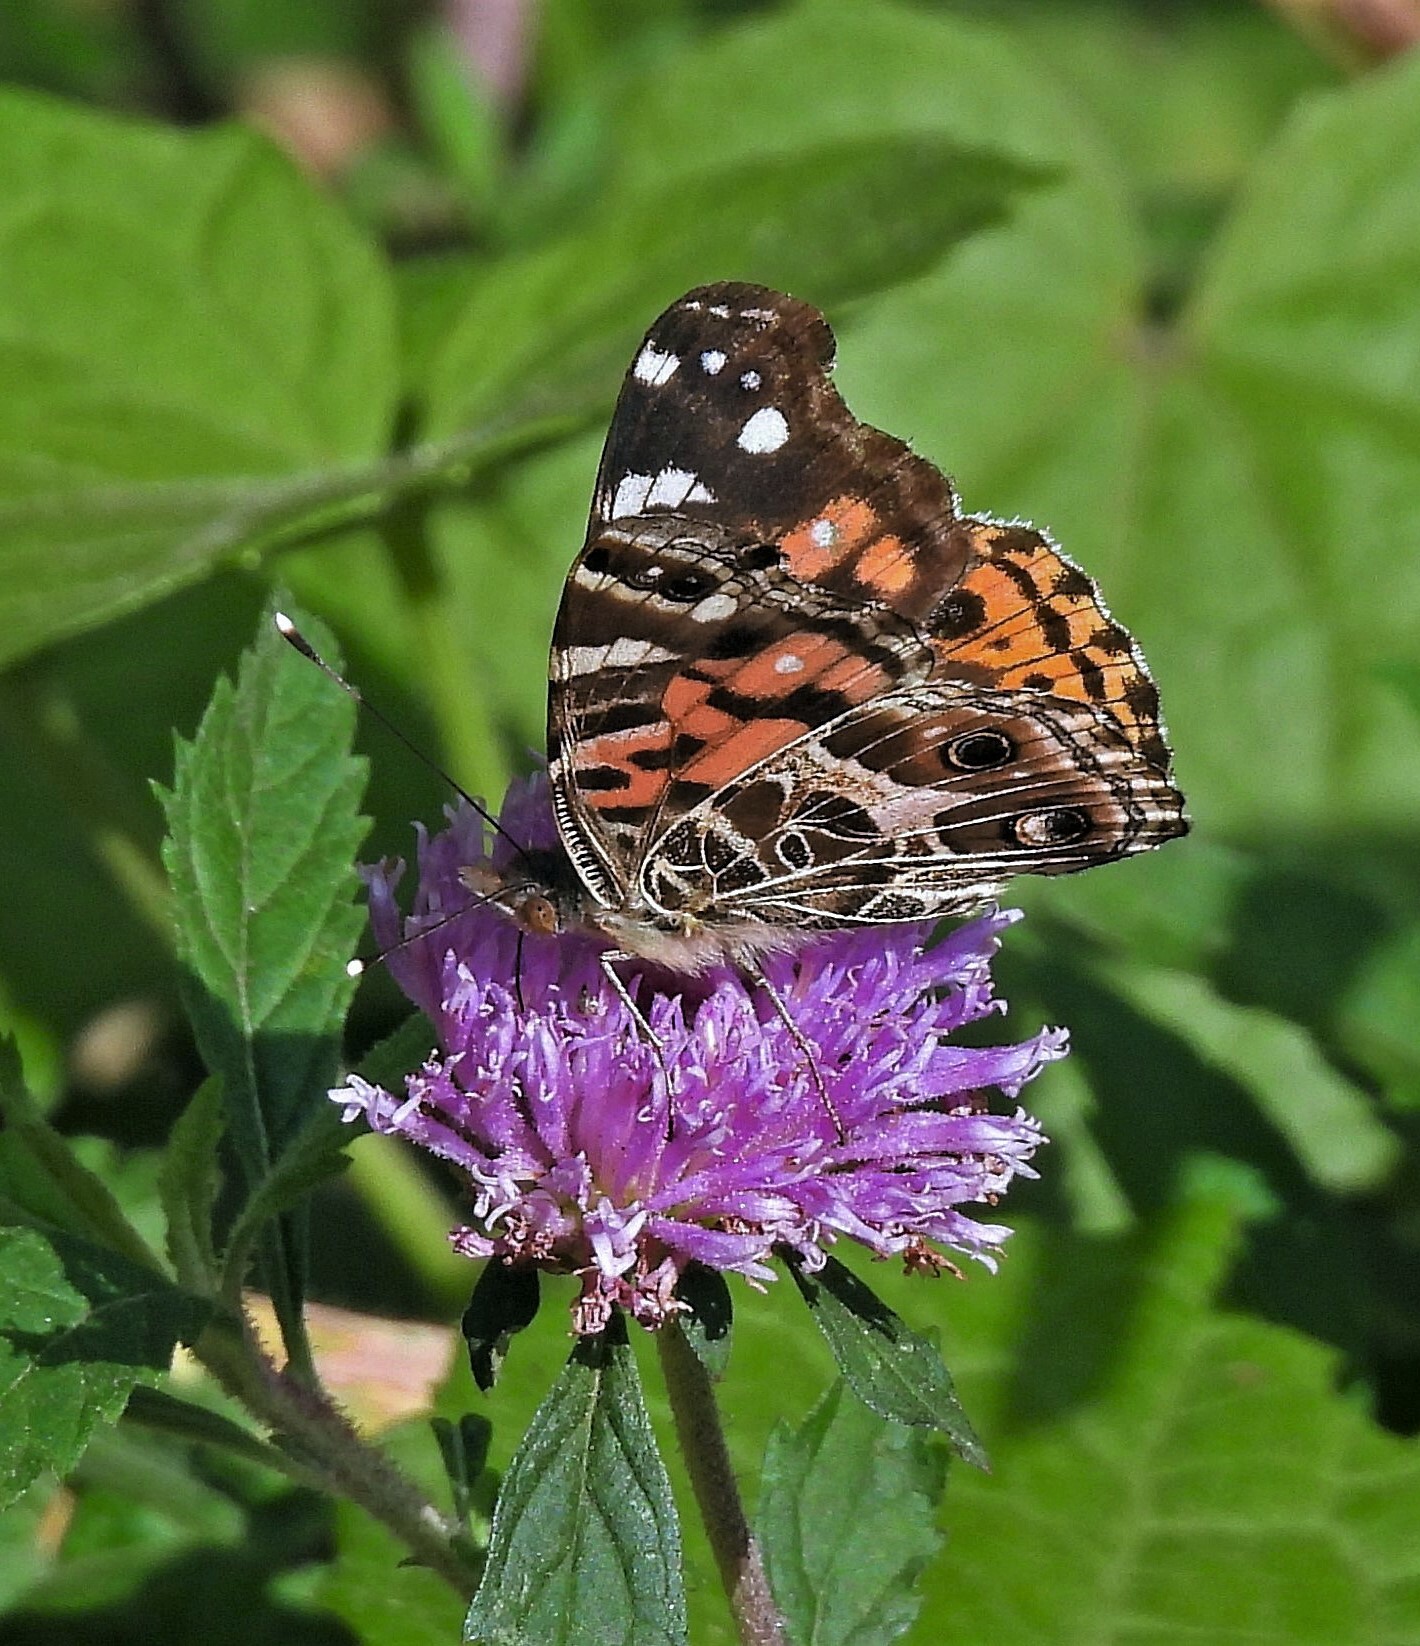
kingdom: Animalia
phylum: Arthropoda
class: Insecta
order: Lepidoptera
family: Nymphalidae
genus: Vanessa
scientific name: Vanessa braziliensis
